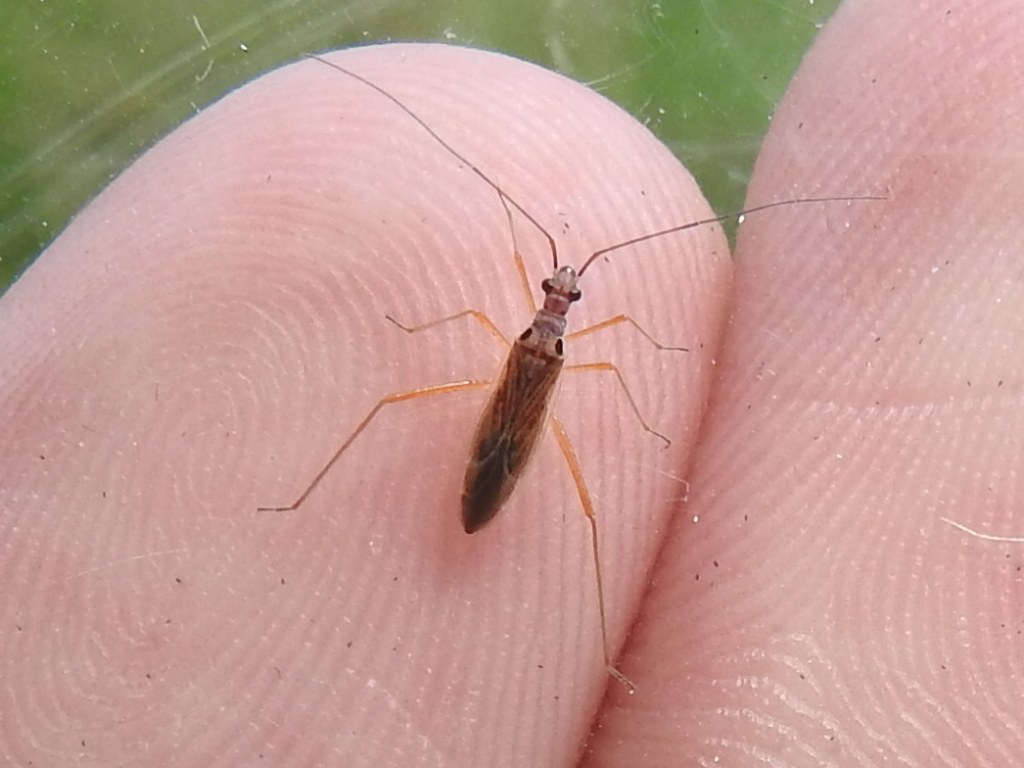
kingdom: Animalia
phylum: Arthropoda
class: Insecta
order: Hemiptera
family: Miridae
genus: Collaria
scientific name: Collaria oculata
